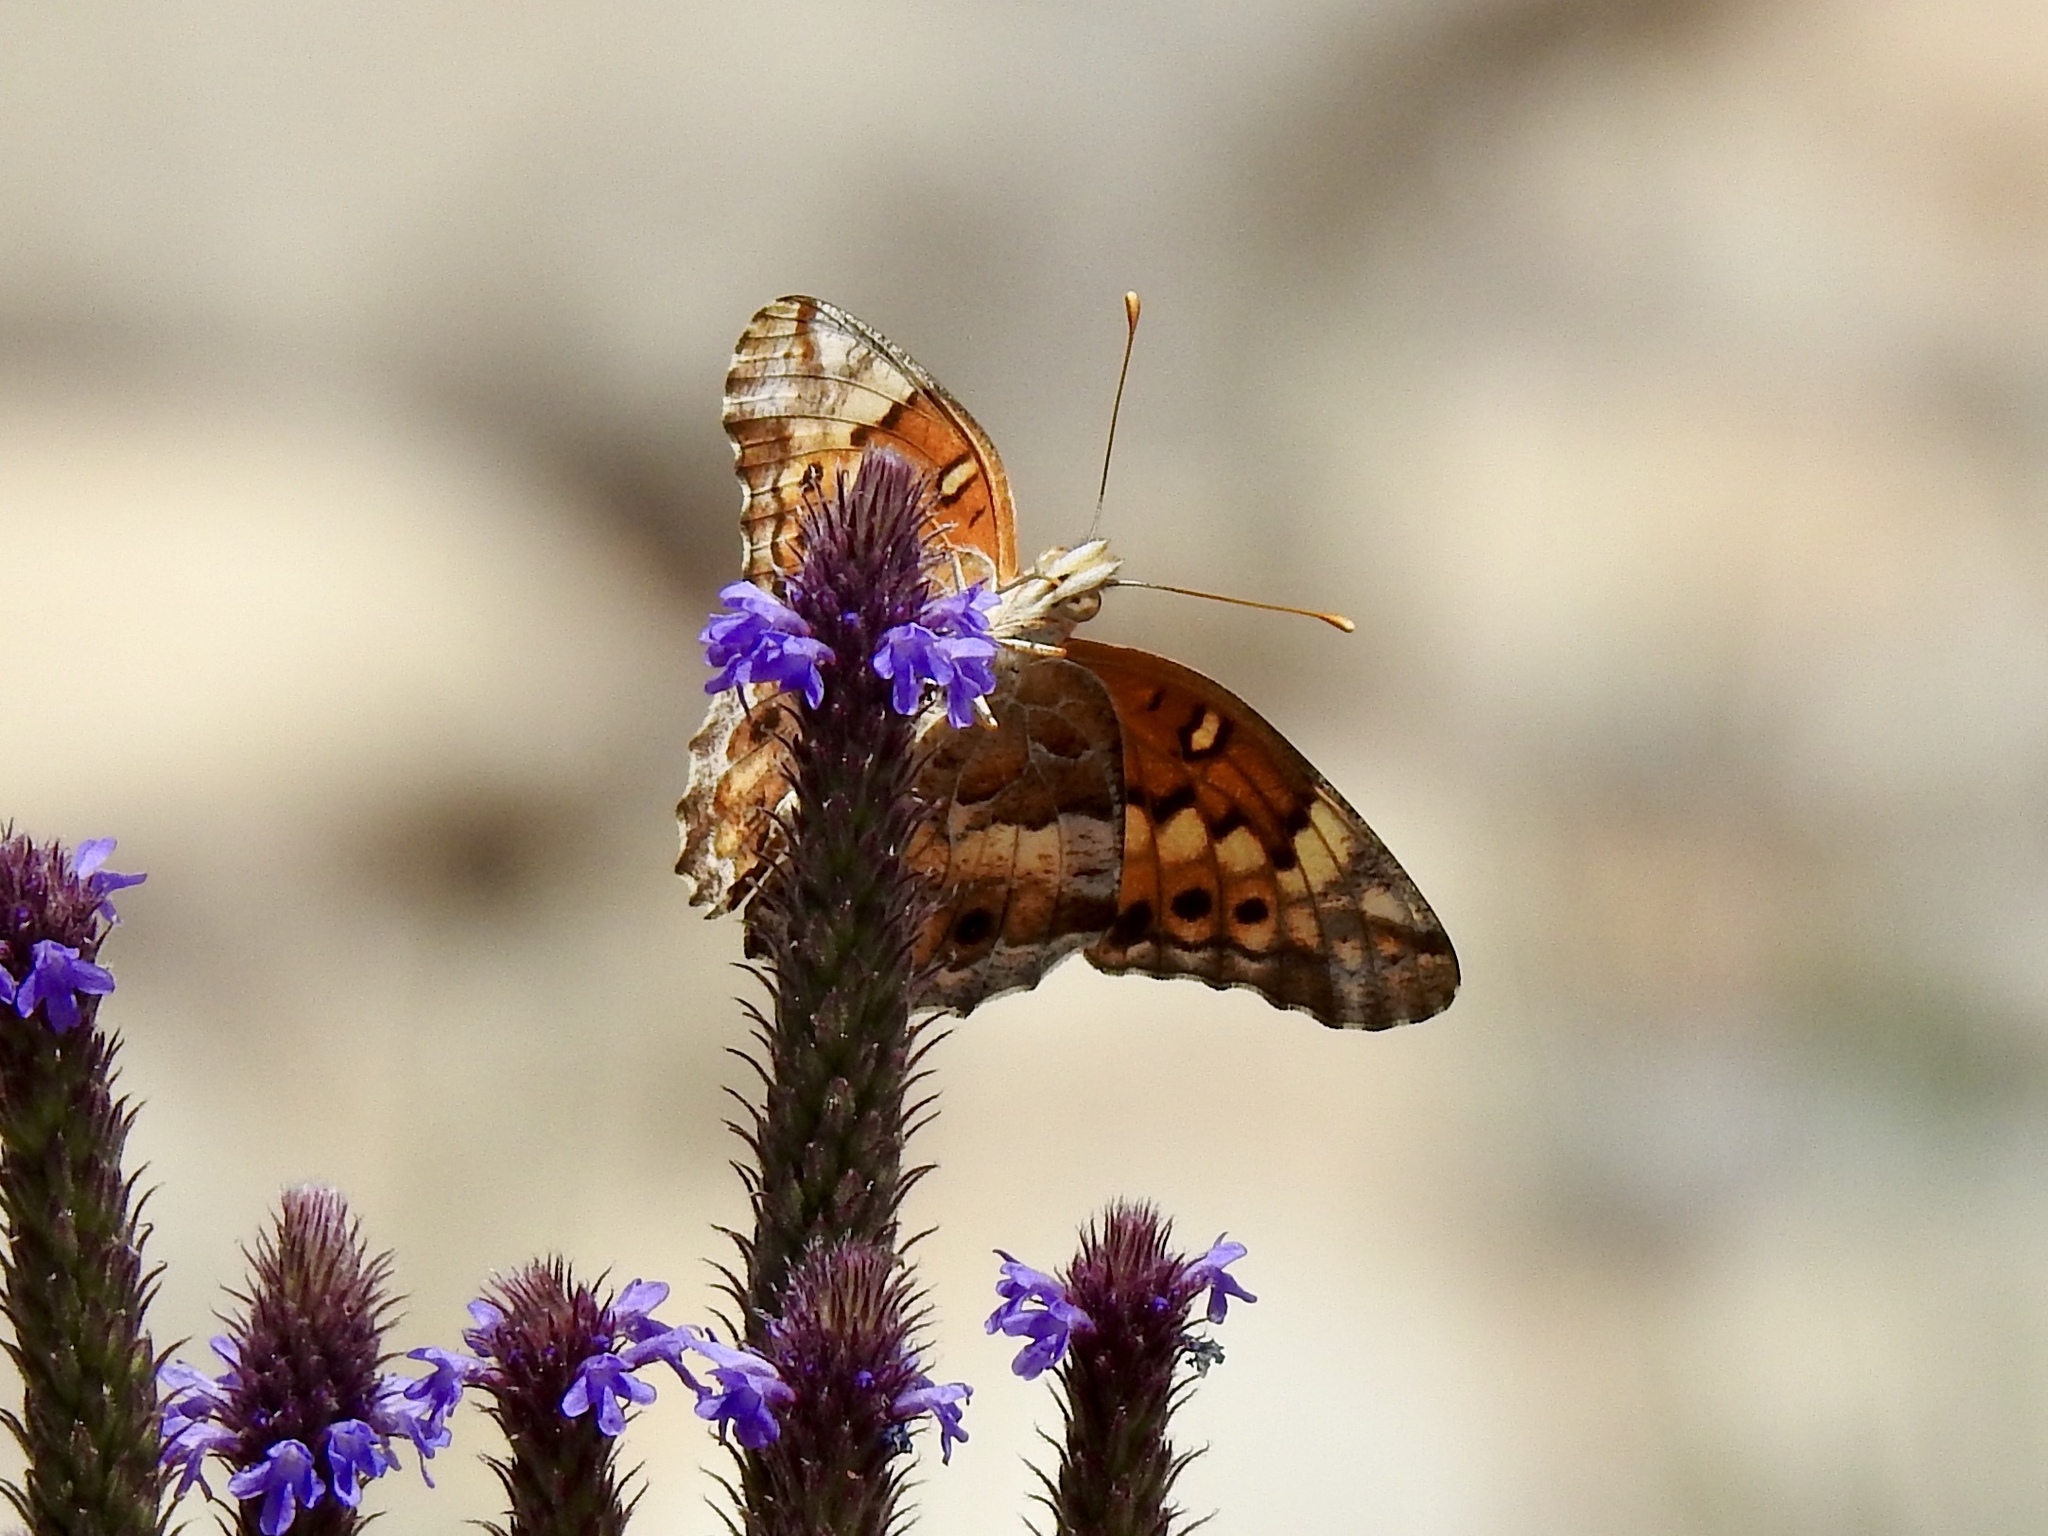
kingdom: Animalia
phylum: Arthropoda
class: Insecta
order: Lepidoptera
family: Nymphalidae
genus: Euptoieta
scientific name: Euptoieta claudia
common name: Variegated fritillary
